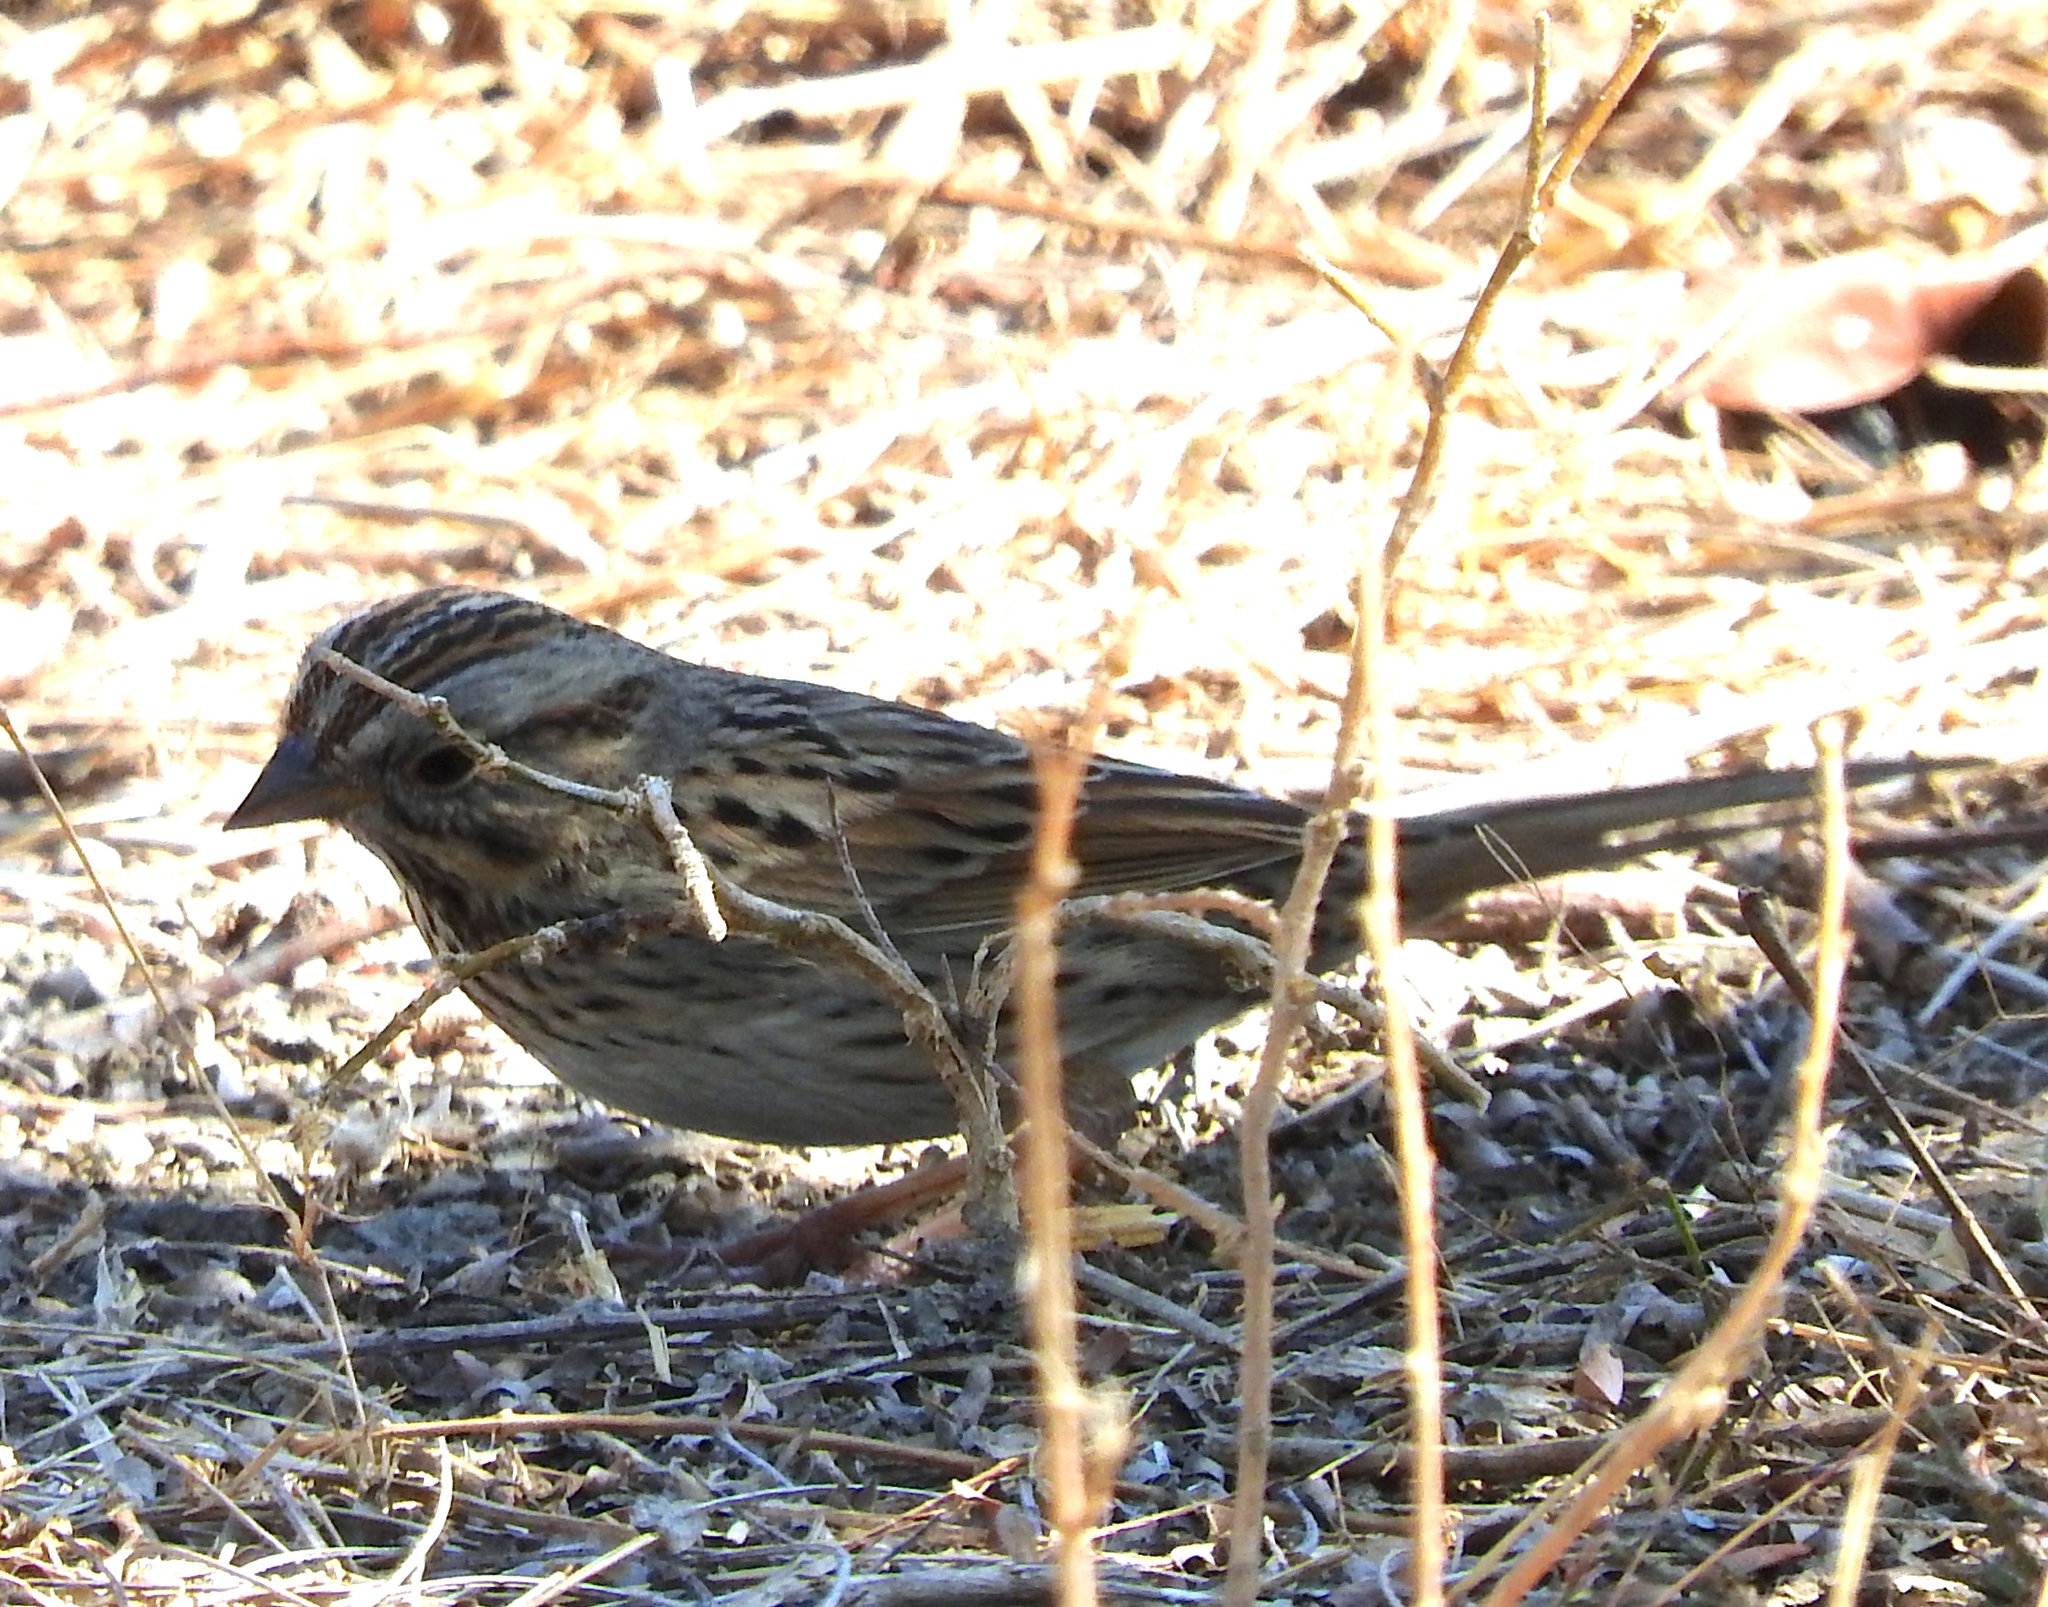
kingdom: Animalia
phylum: Chordata
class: Aves
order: Passeriformes
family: Passerellidae
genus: Melospiza
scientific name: Melospiza lincolnii
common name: Lincoln's sparrow
